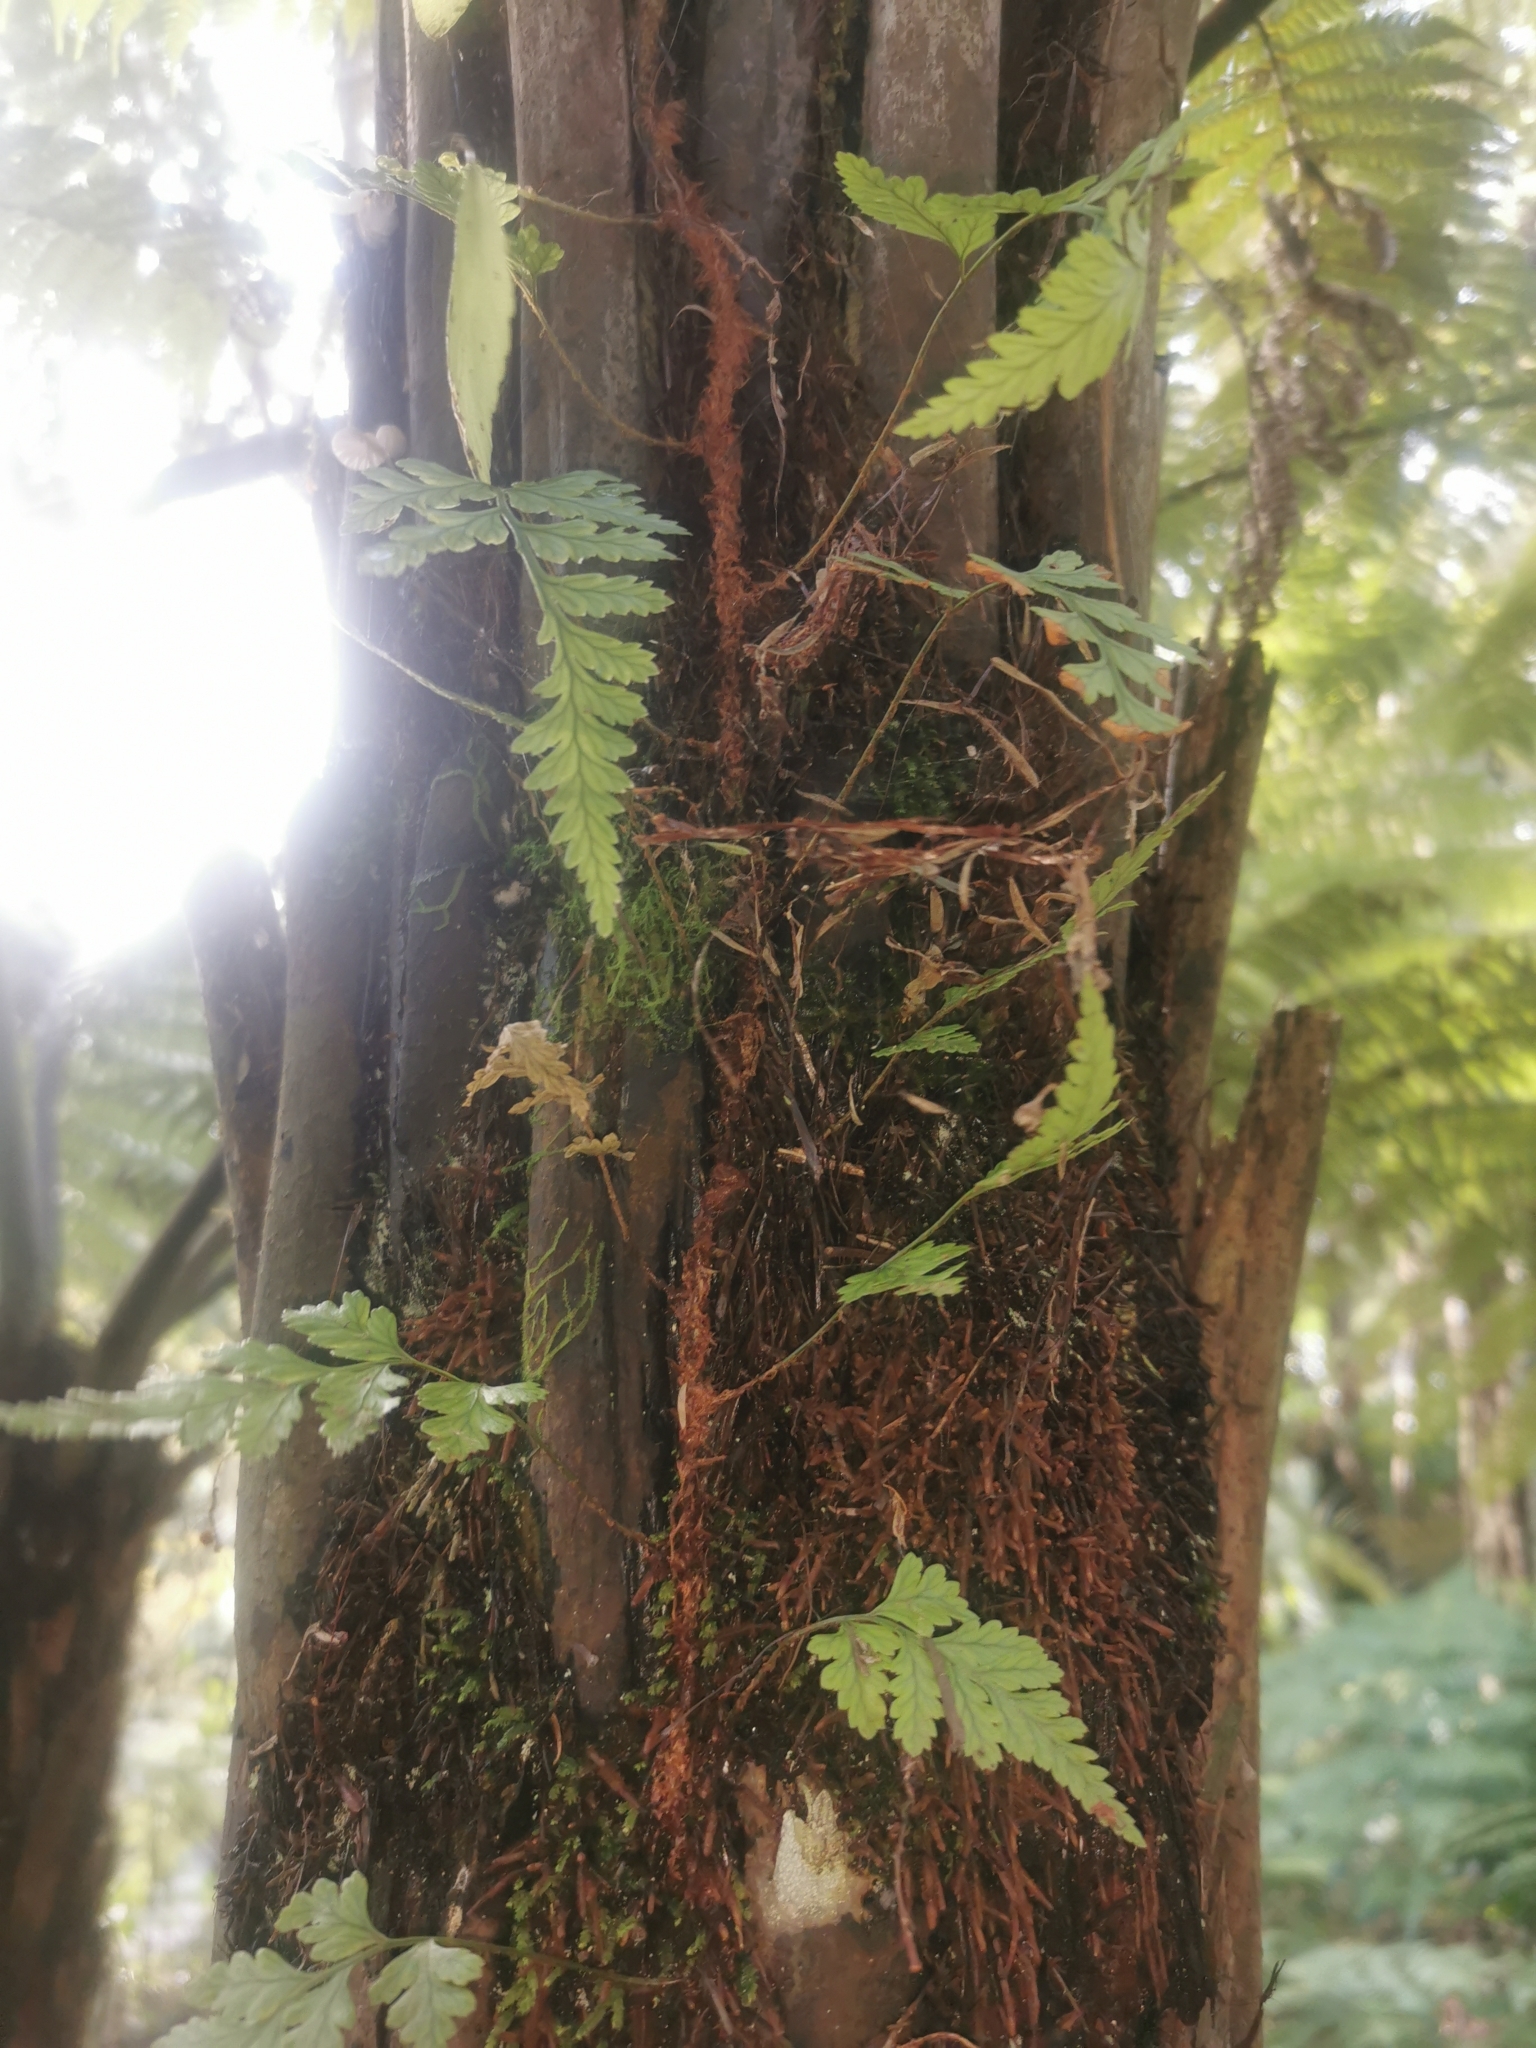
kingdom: Plantae
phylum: Tracheophyta
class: Polypodiopsida
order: Polypodiales
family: Dryopteridaceae
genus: Rumohra
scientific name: Rumohra adiantiformis
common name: Leather fern
